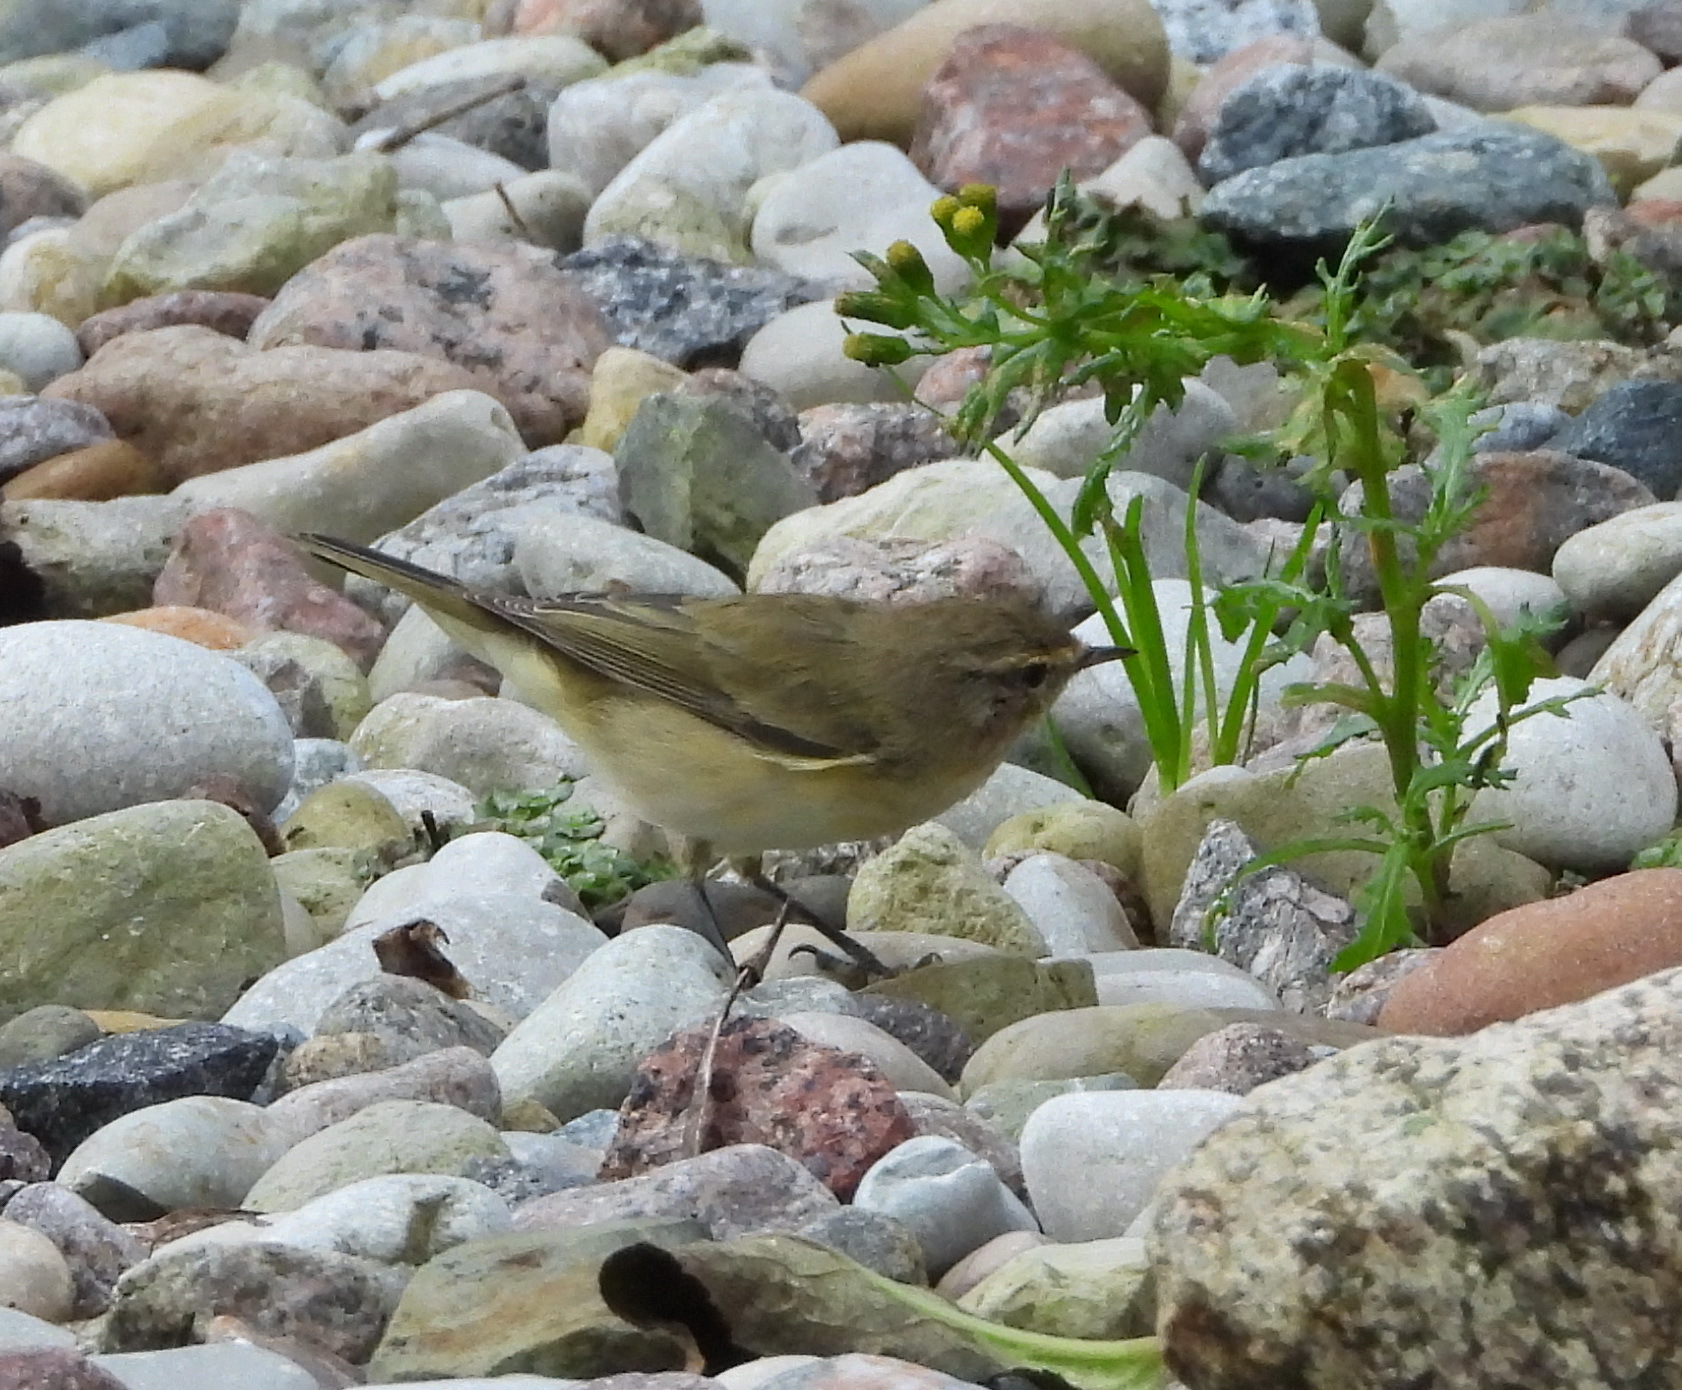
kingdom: Animalia
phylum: Chordata
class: Aves
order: Passeriformes
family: Phylloscopidae
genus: Phylloscopus
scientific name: Phylloscopus collybita
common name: Common chiffchaff
